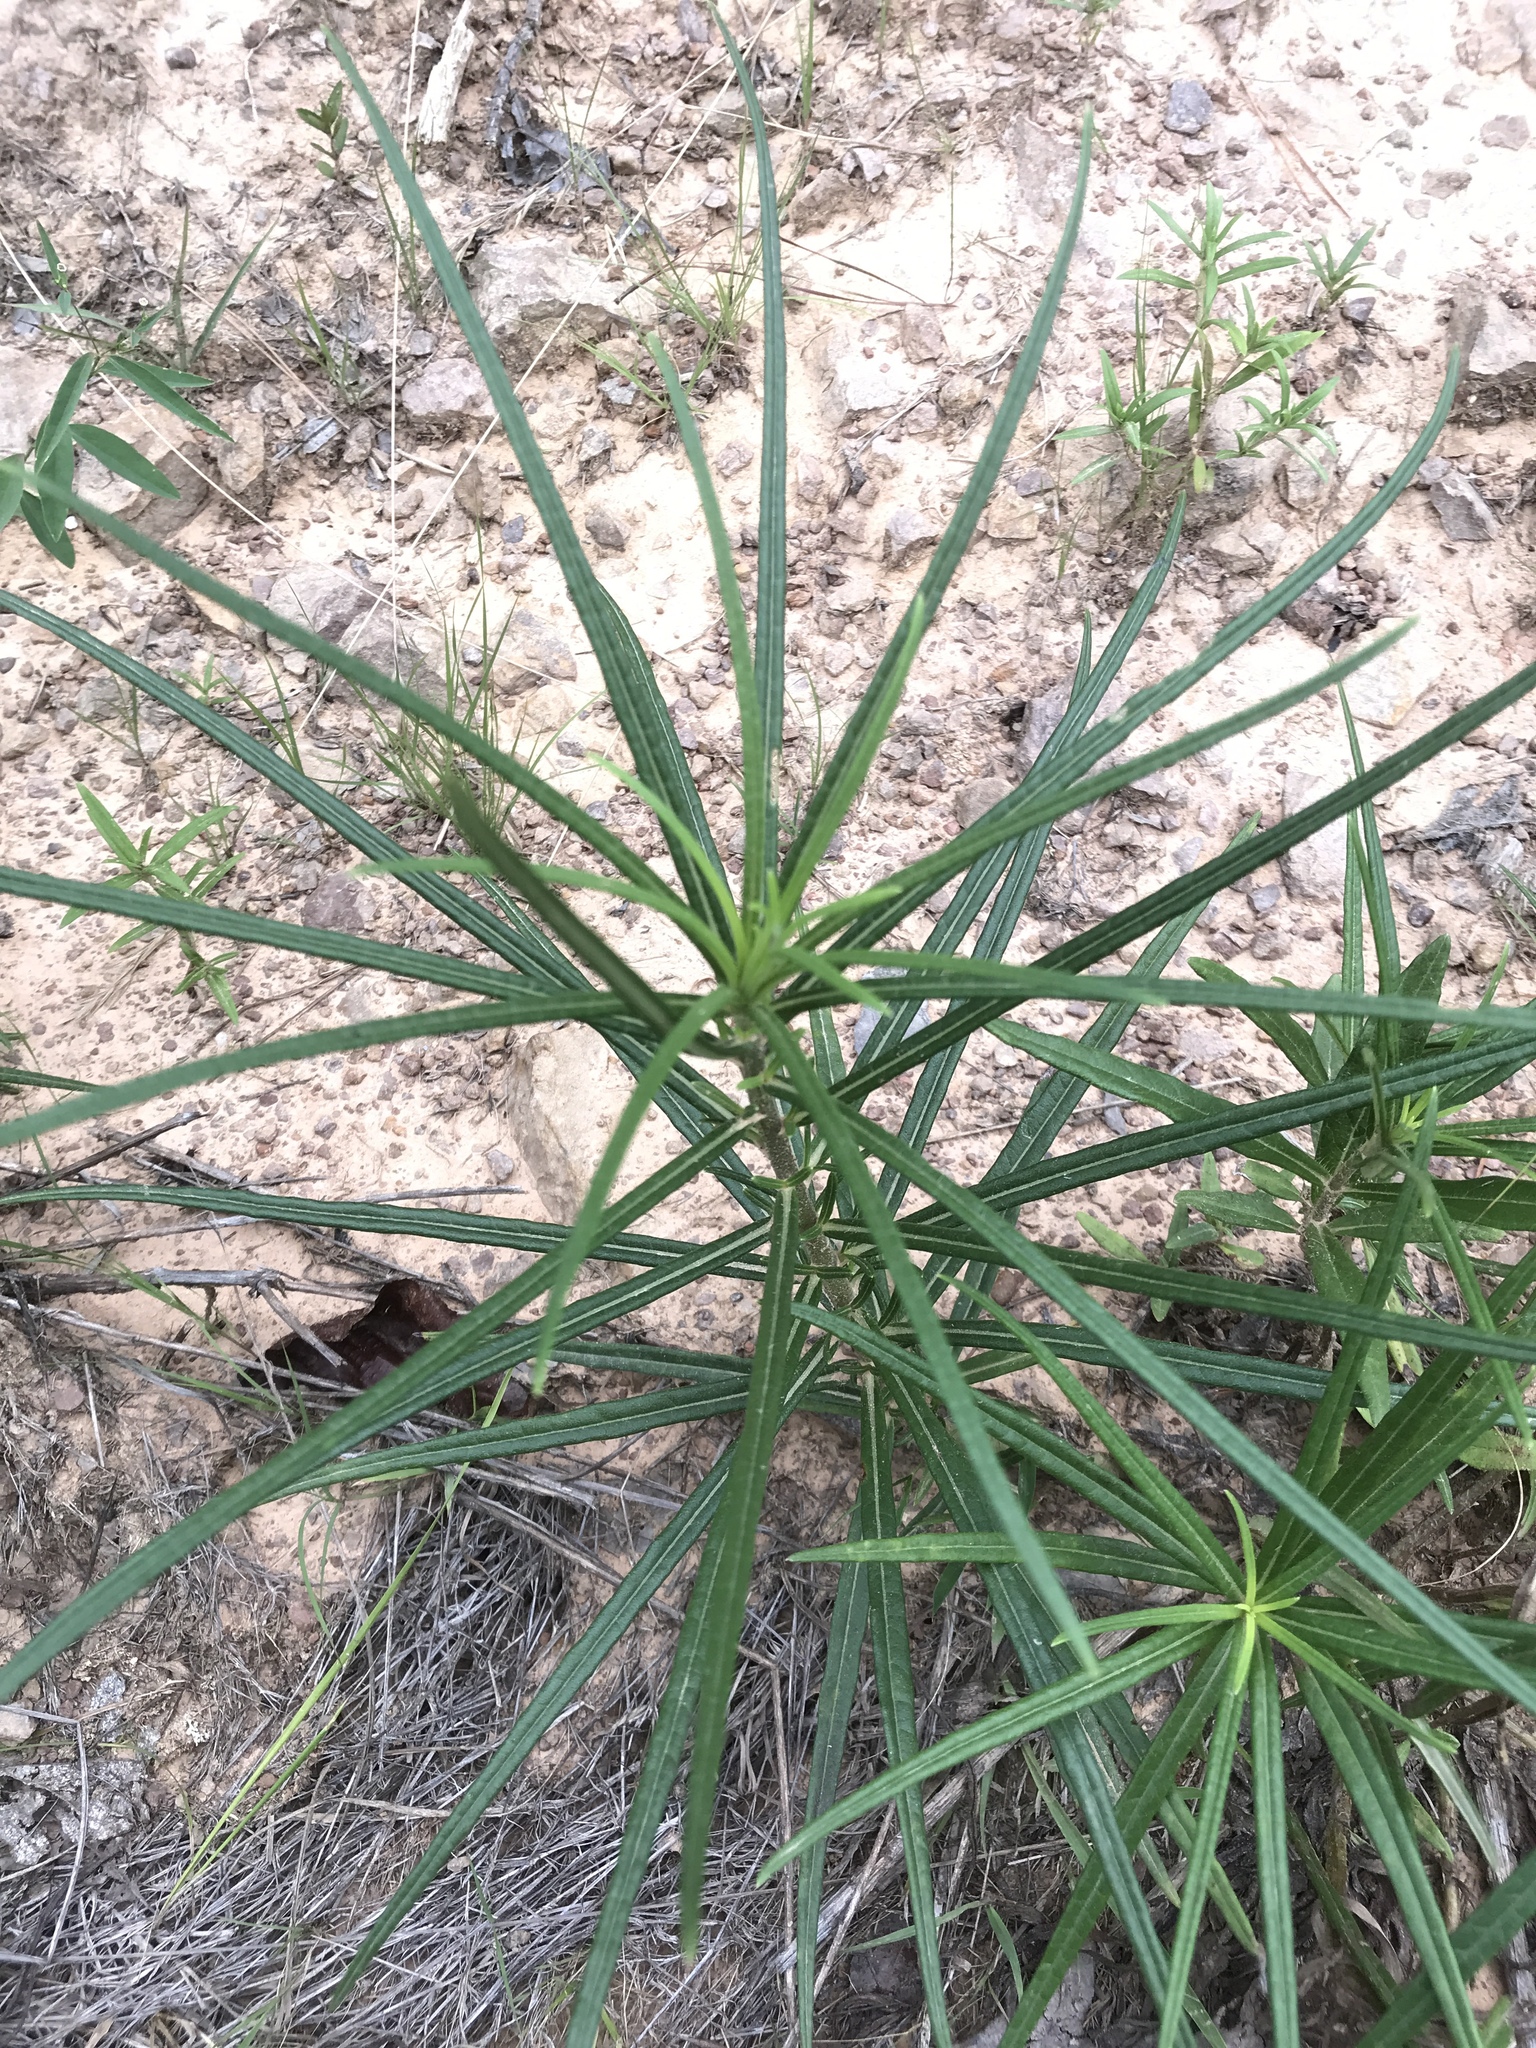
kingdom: Plantae
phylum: Tracheophyta
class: Magnoliopsida
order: Asterales
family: Asteraceae
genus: Helianthus
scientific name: Helianthus angustifolius
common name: Swamp sunflower
